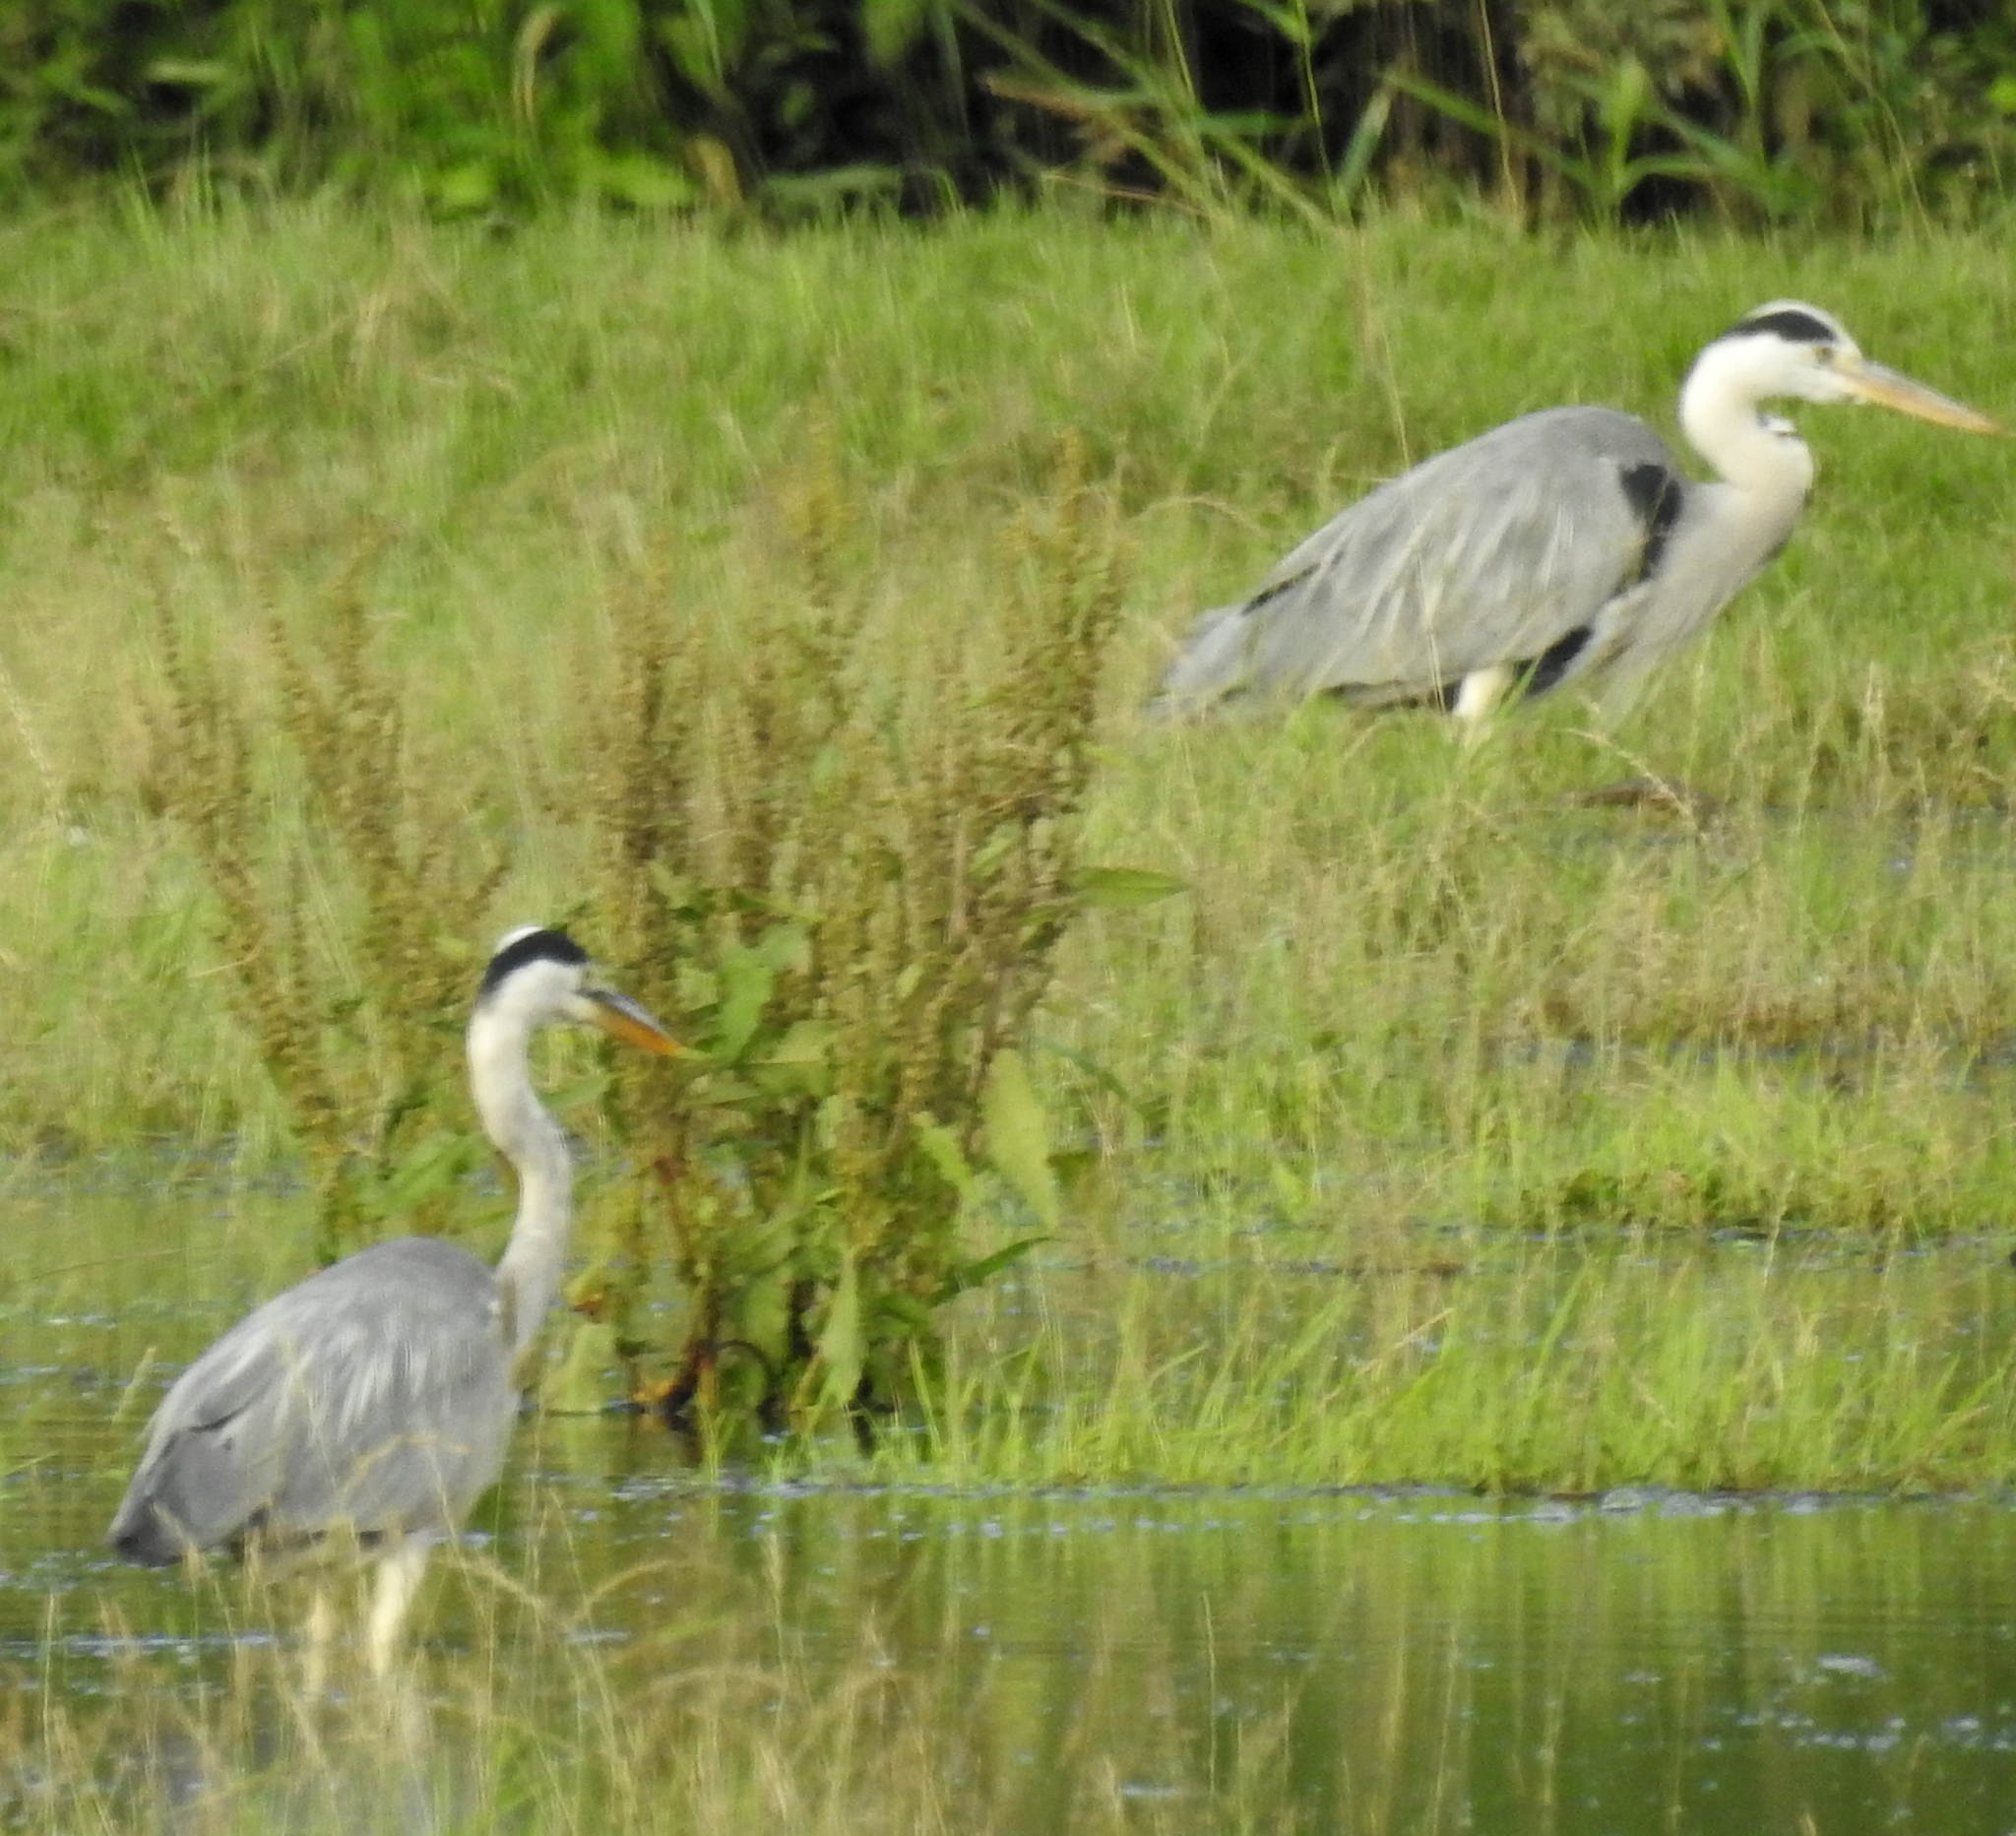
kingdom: Animalia
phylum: Chordata
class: Aves
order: Pelecaniformes
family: Ardeidae
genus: Ardea
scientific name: Ardea cinerea
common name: Grey heron
